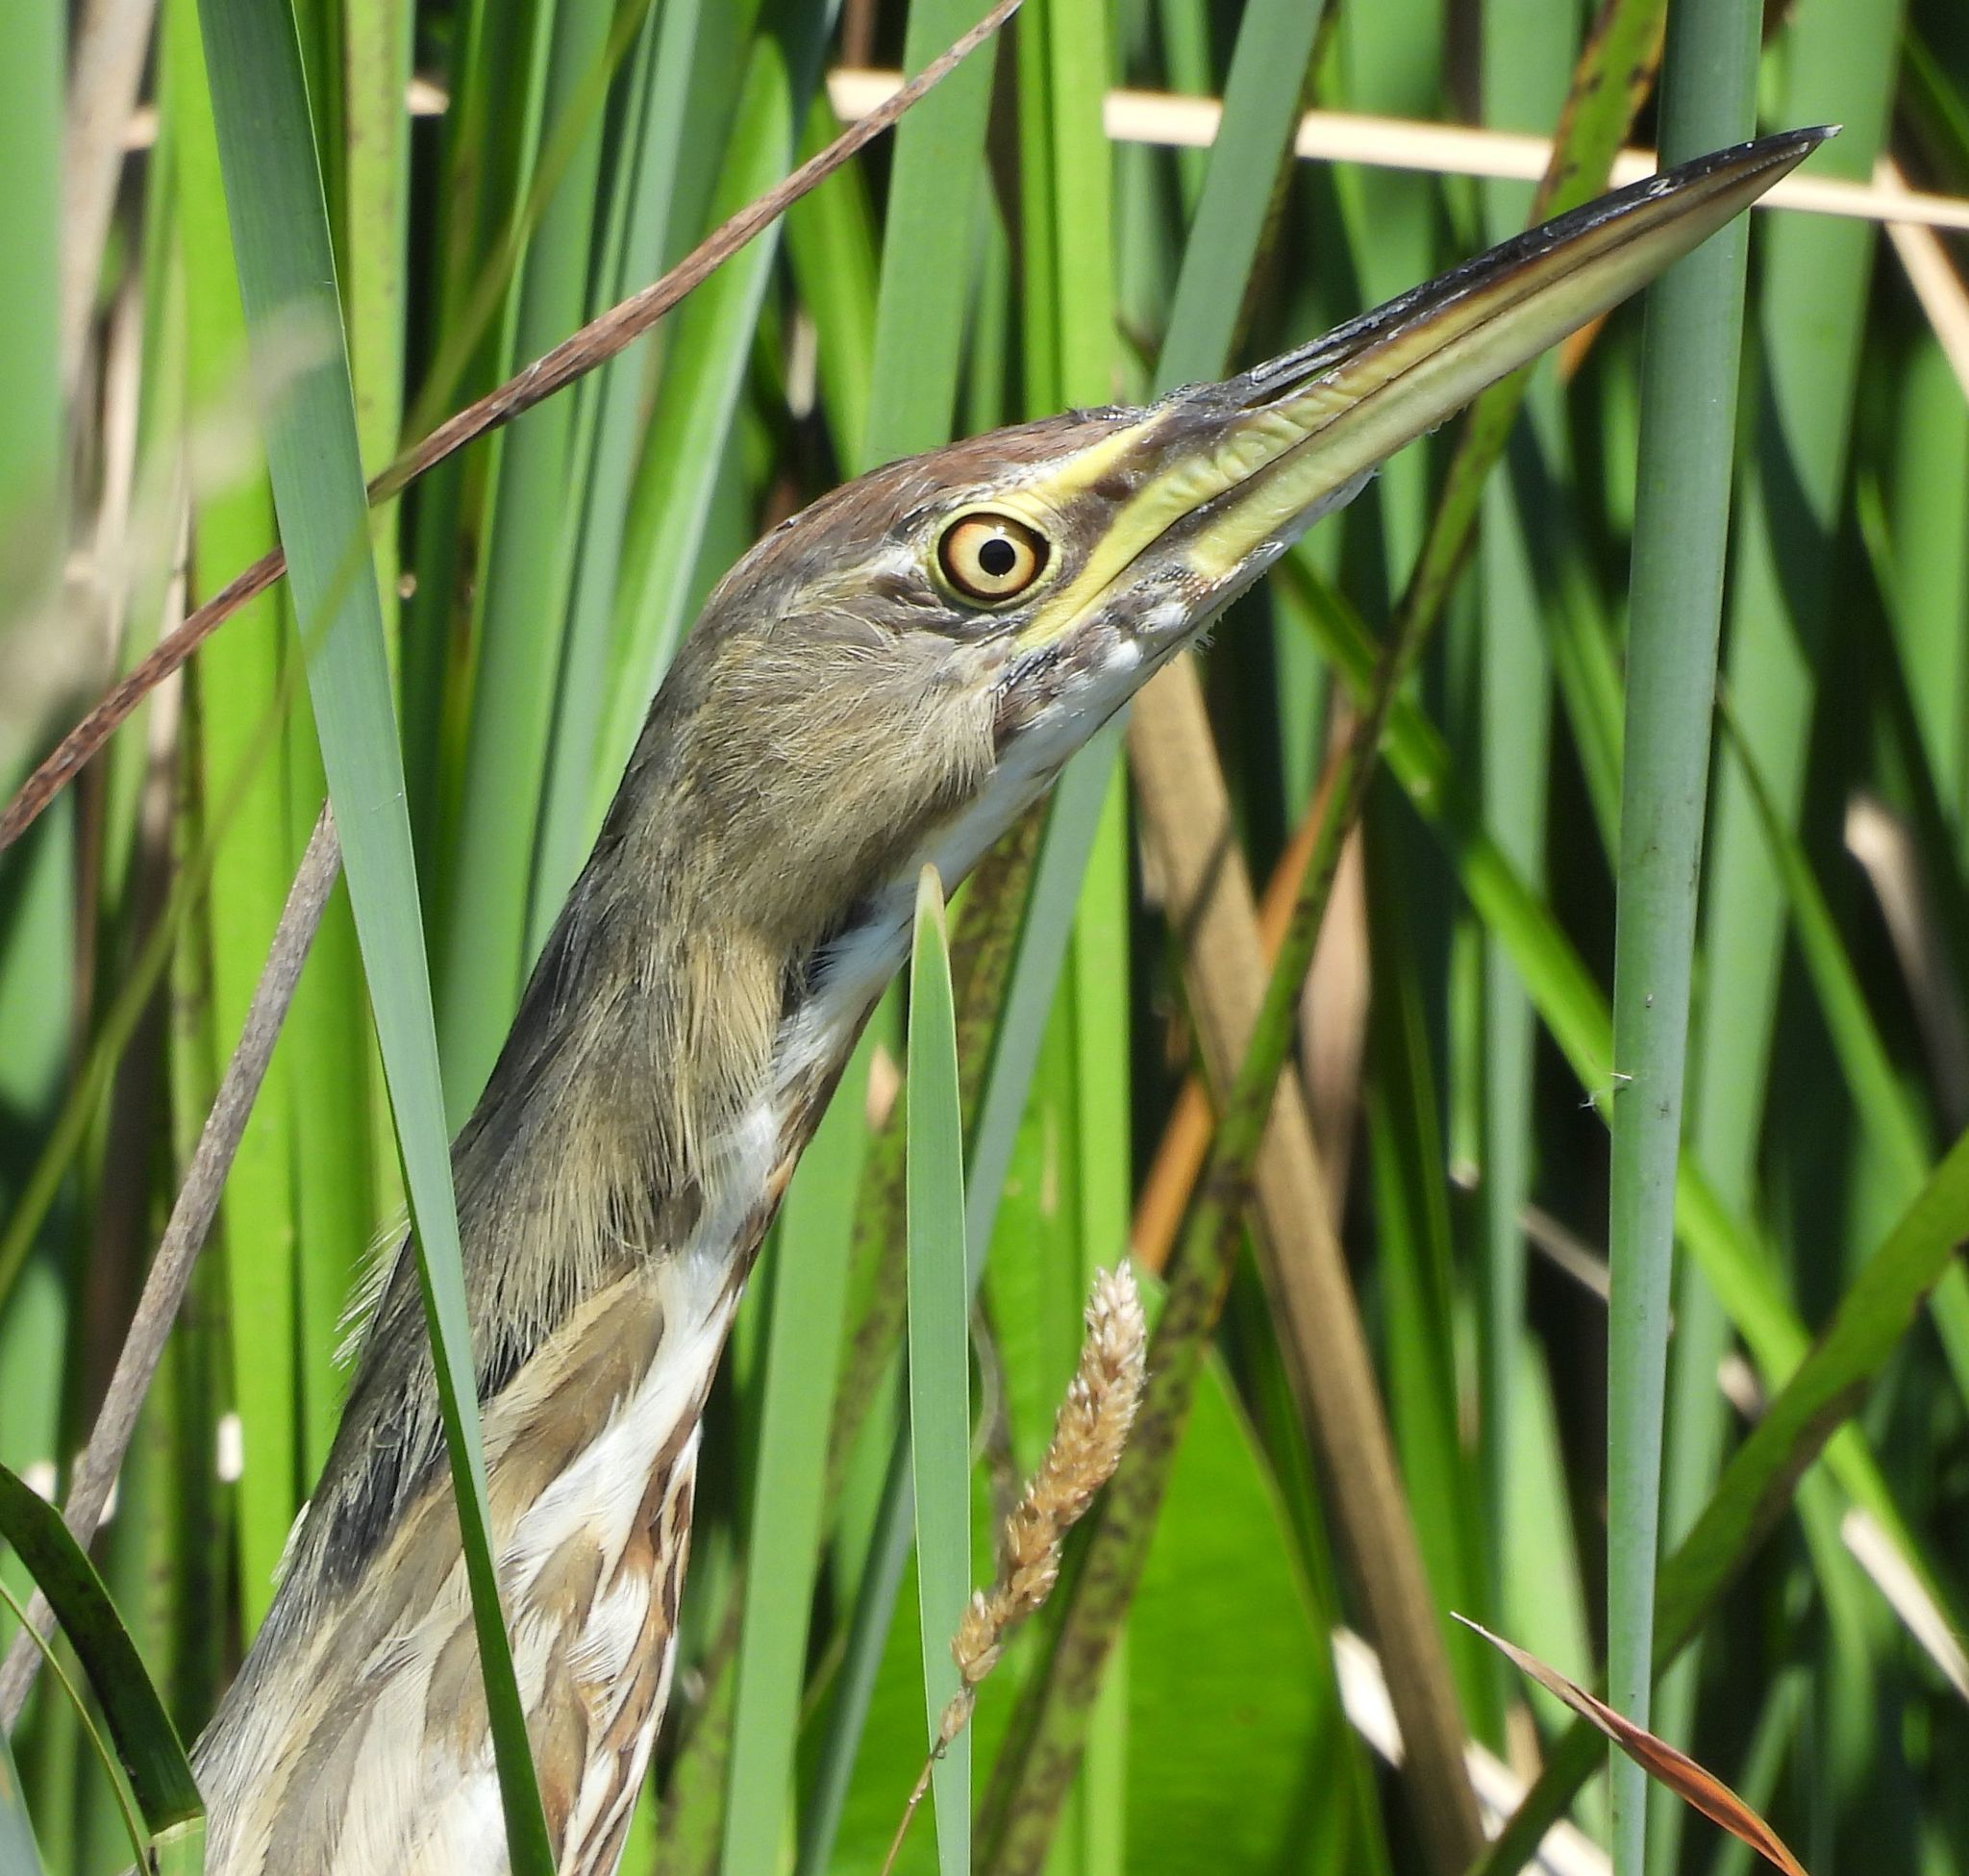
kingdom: Animalia
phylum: Chordata
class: Aves
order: Pelecaniformes
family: Ardeidae
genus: Botaurus
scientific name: Botaurus lentiginosus
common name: American bittern
